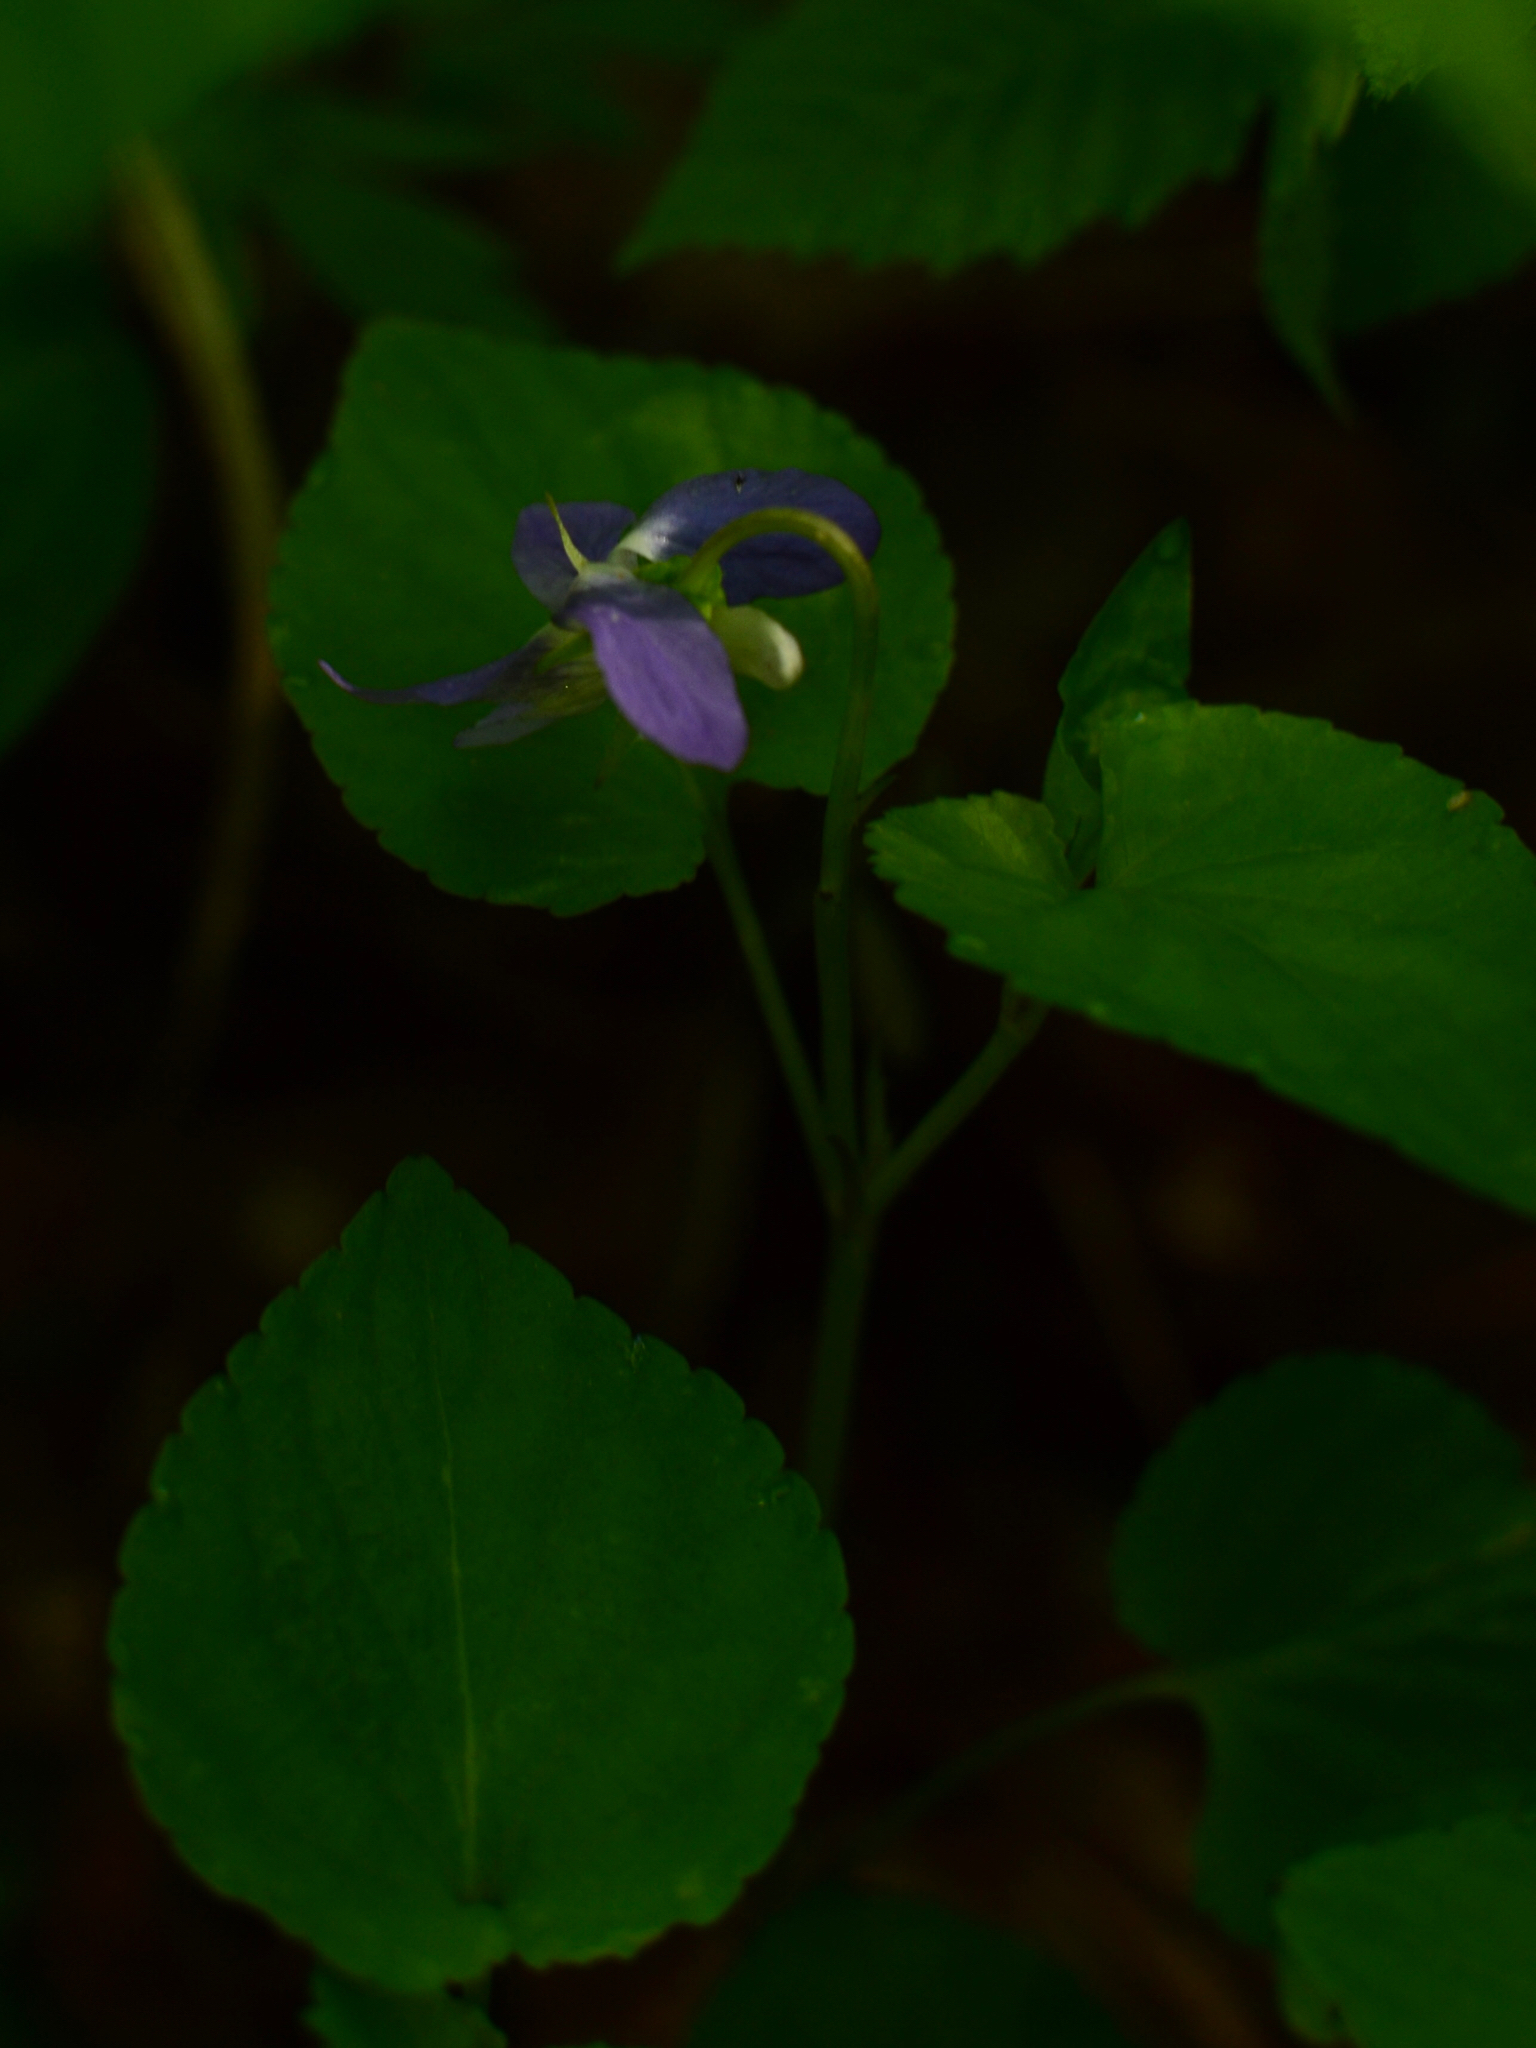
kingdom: Plantae
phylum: Tracheophyta
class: Magnoliopsida
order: Malpighiales
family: Violaceae
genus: Viola
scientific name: Viola riviniana
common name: Common dog-violet
